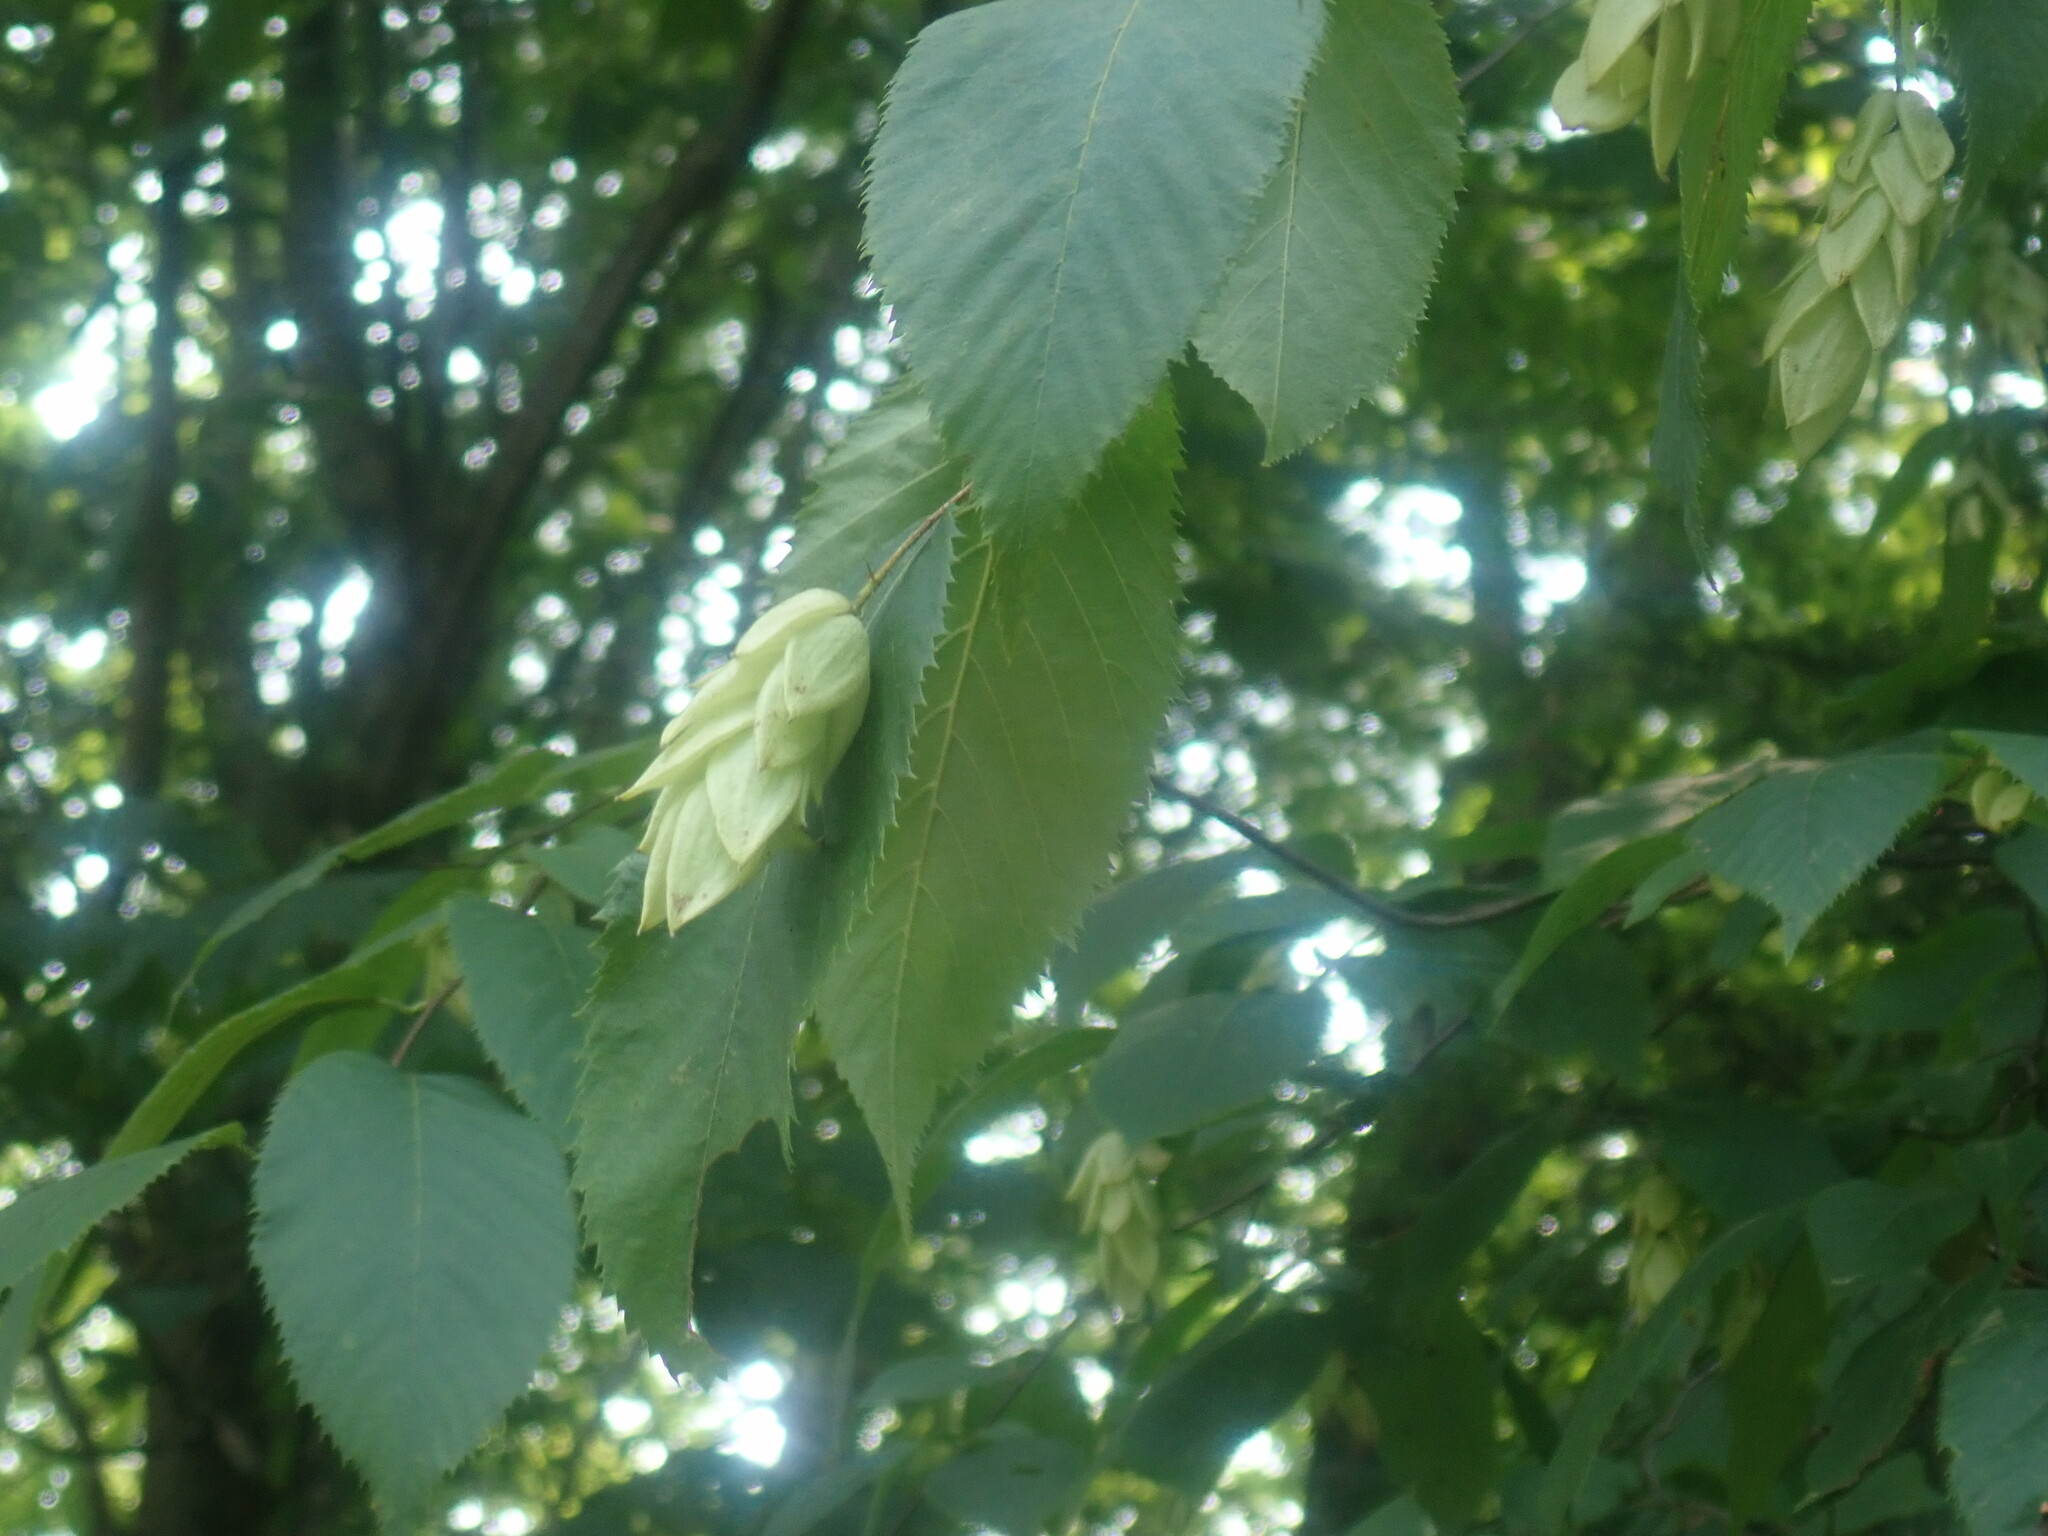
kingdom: Plantae
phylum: Tracheophyta
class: Magnoliopsida
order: Fagales
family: Betulaceae
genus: Ostrya
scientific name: Ostrya virginiana
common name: Ironwood
